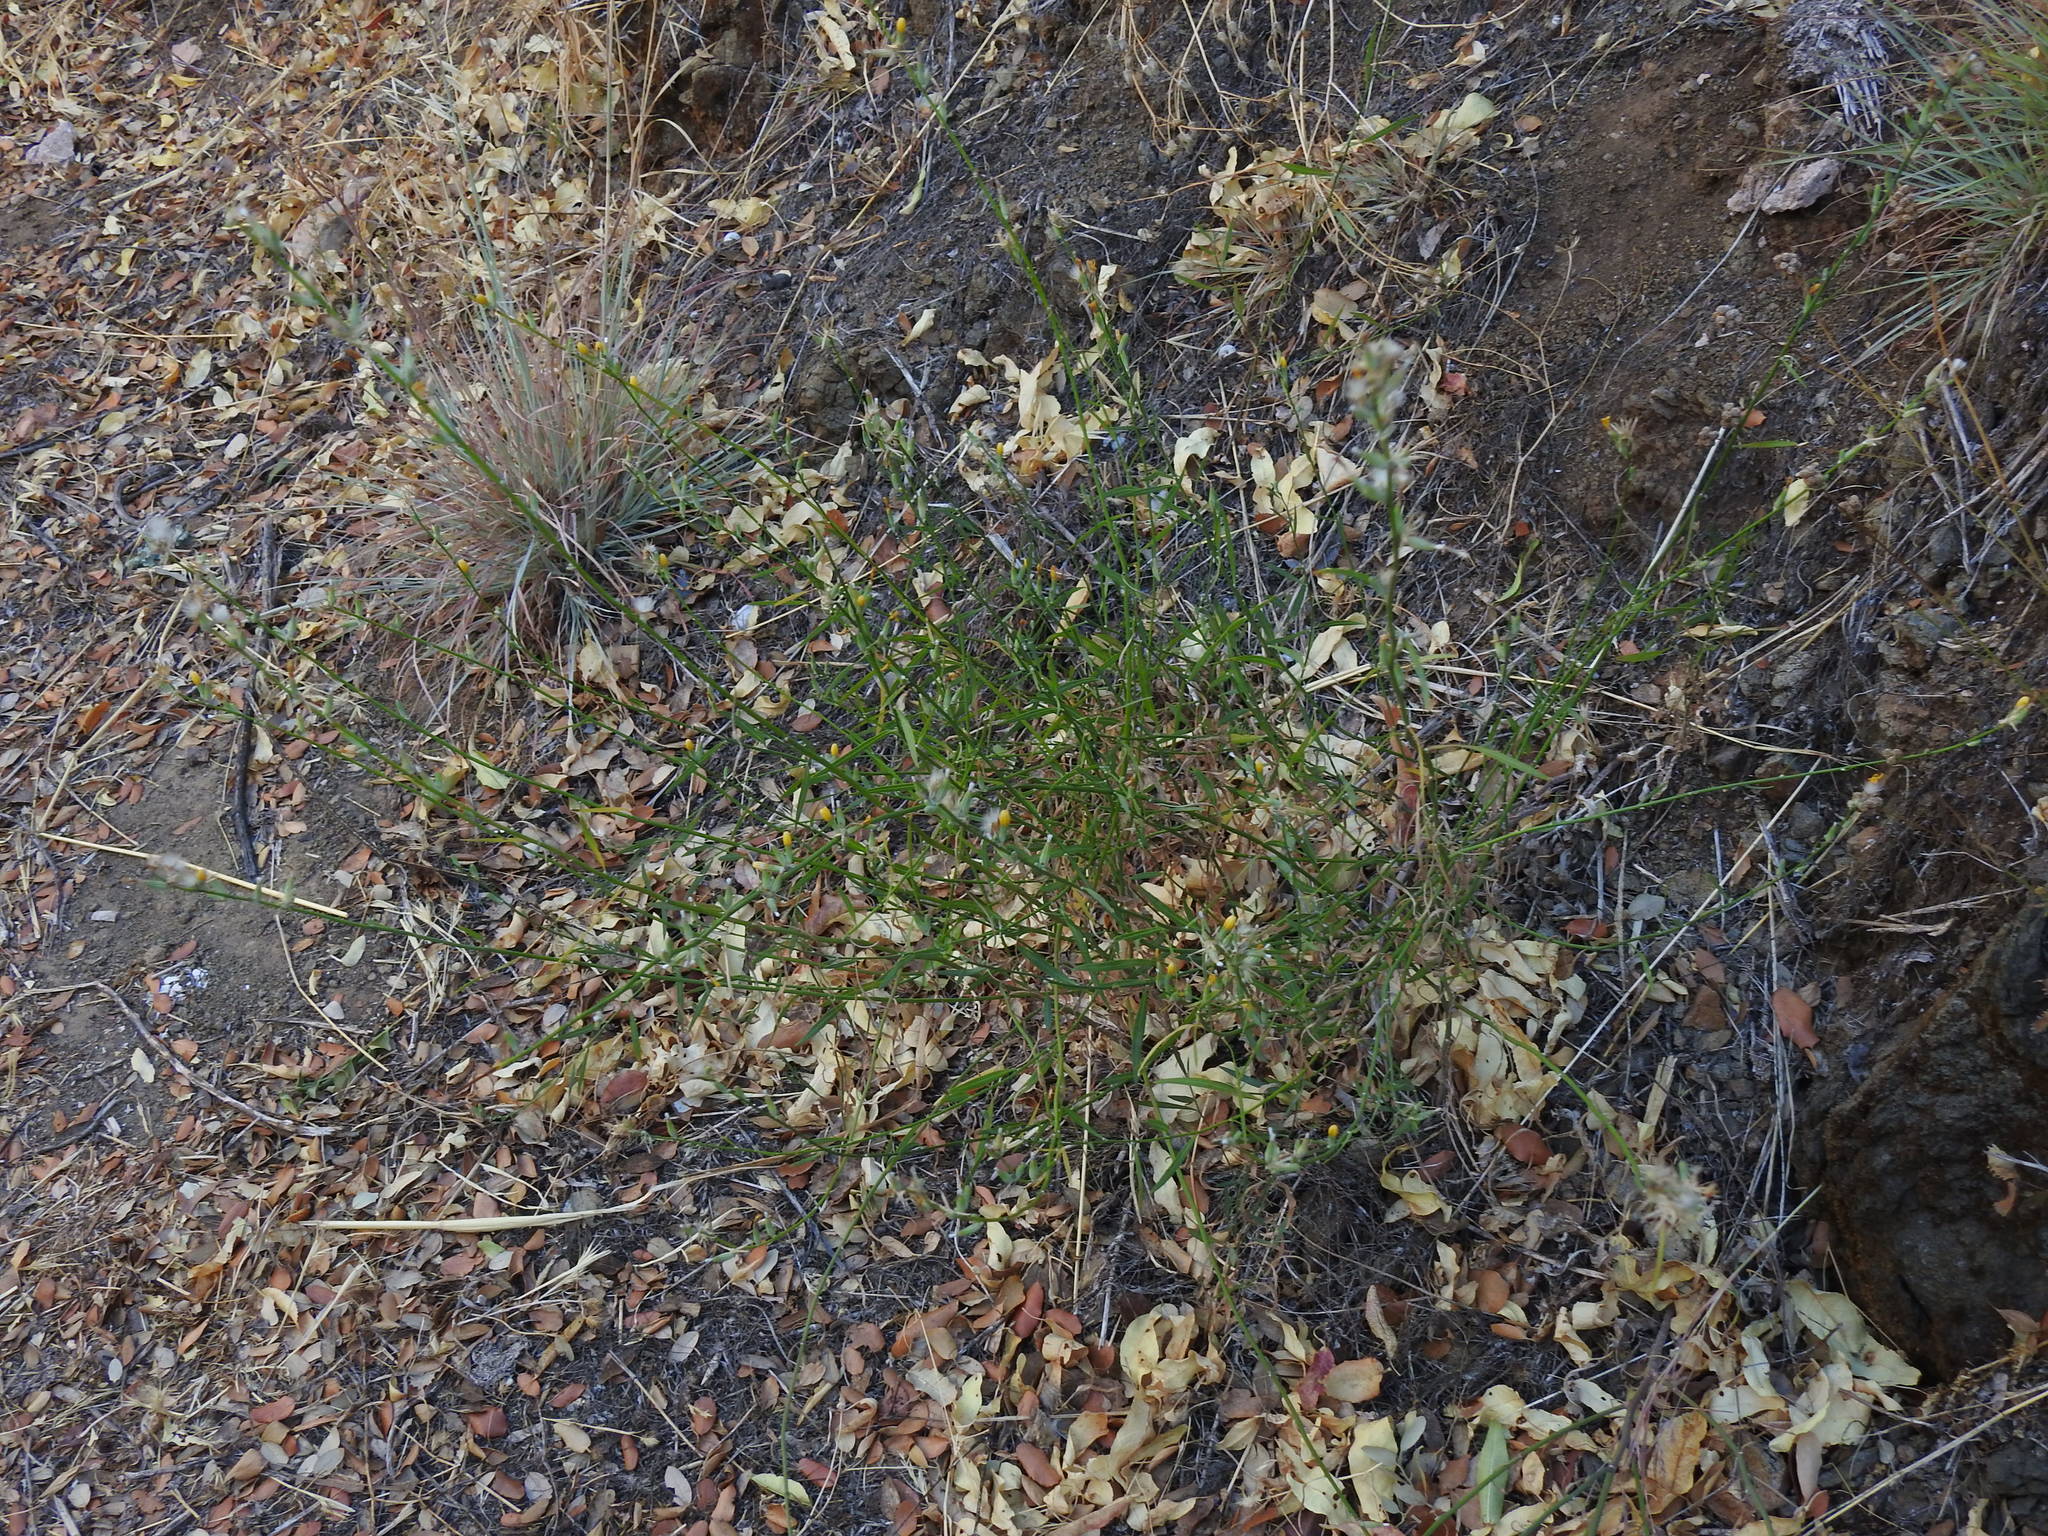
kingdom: Plantae
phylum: Tracheophyta
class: Magnoliopsida
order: Asterales
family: Asteraceae
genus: Chondrilla
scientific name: Chondrilla juncea
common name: Skeleton weed
